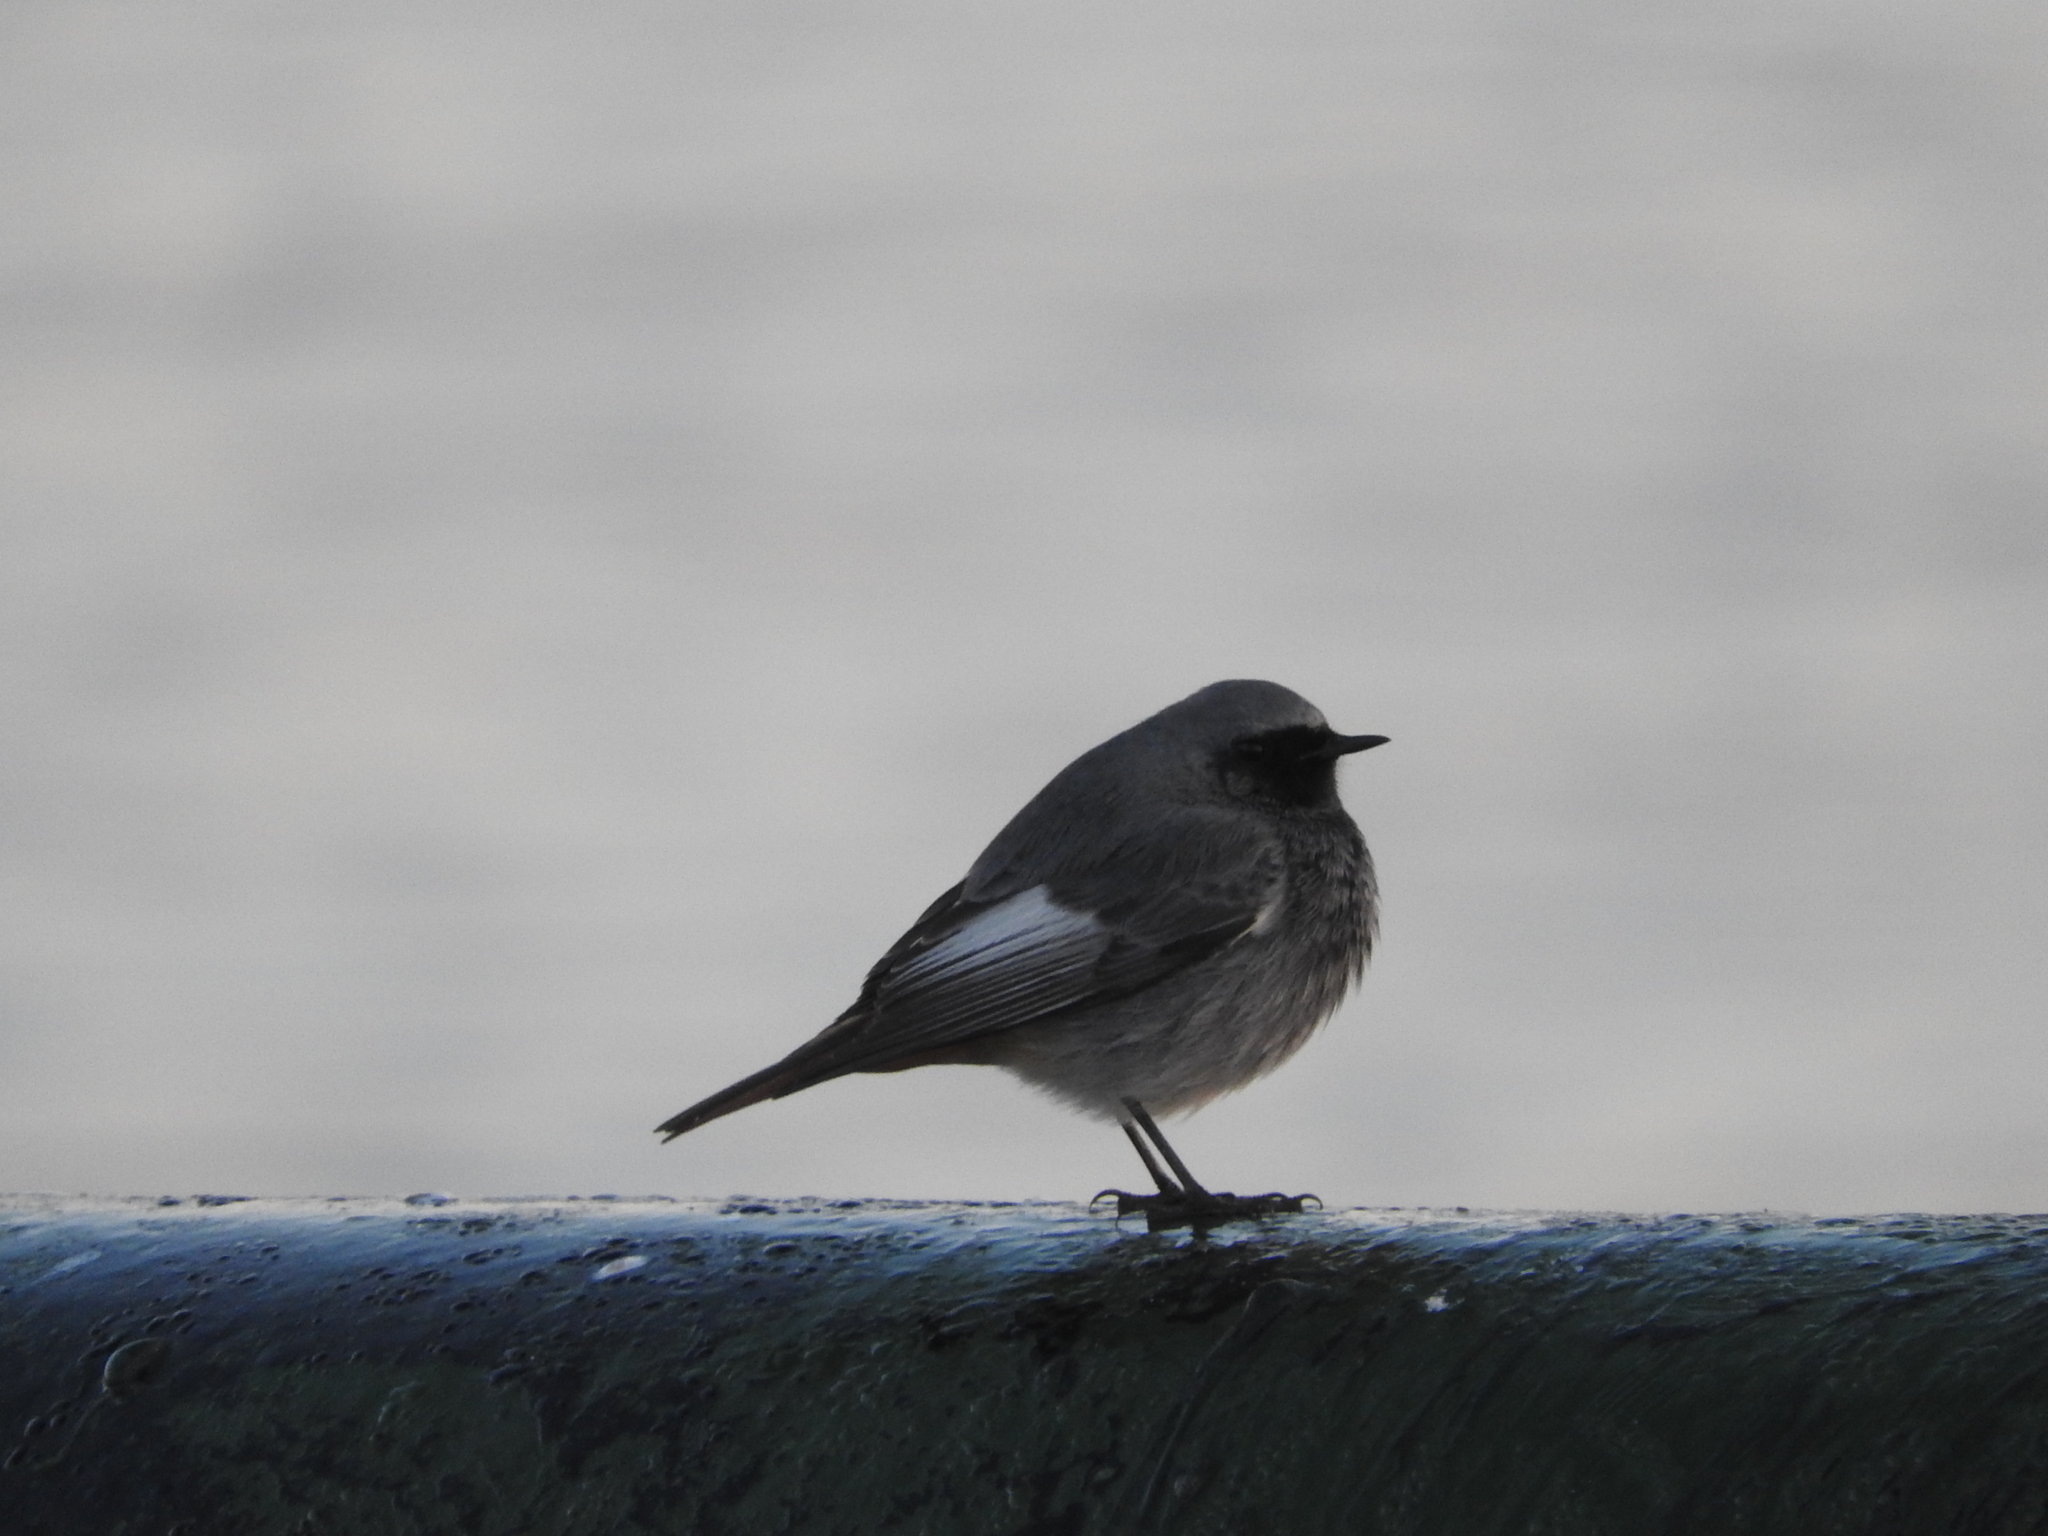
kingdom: Animalia
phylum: Chordata
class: Aves
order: Passeriformes
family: Muscicapidae
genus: Phoenicurus
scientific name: Phoenicurus ochruros
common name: Black redstart
